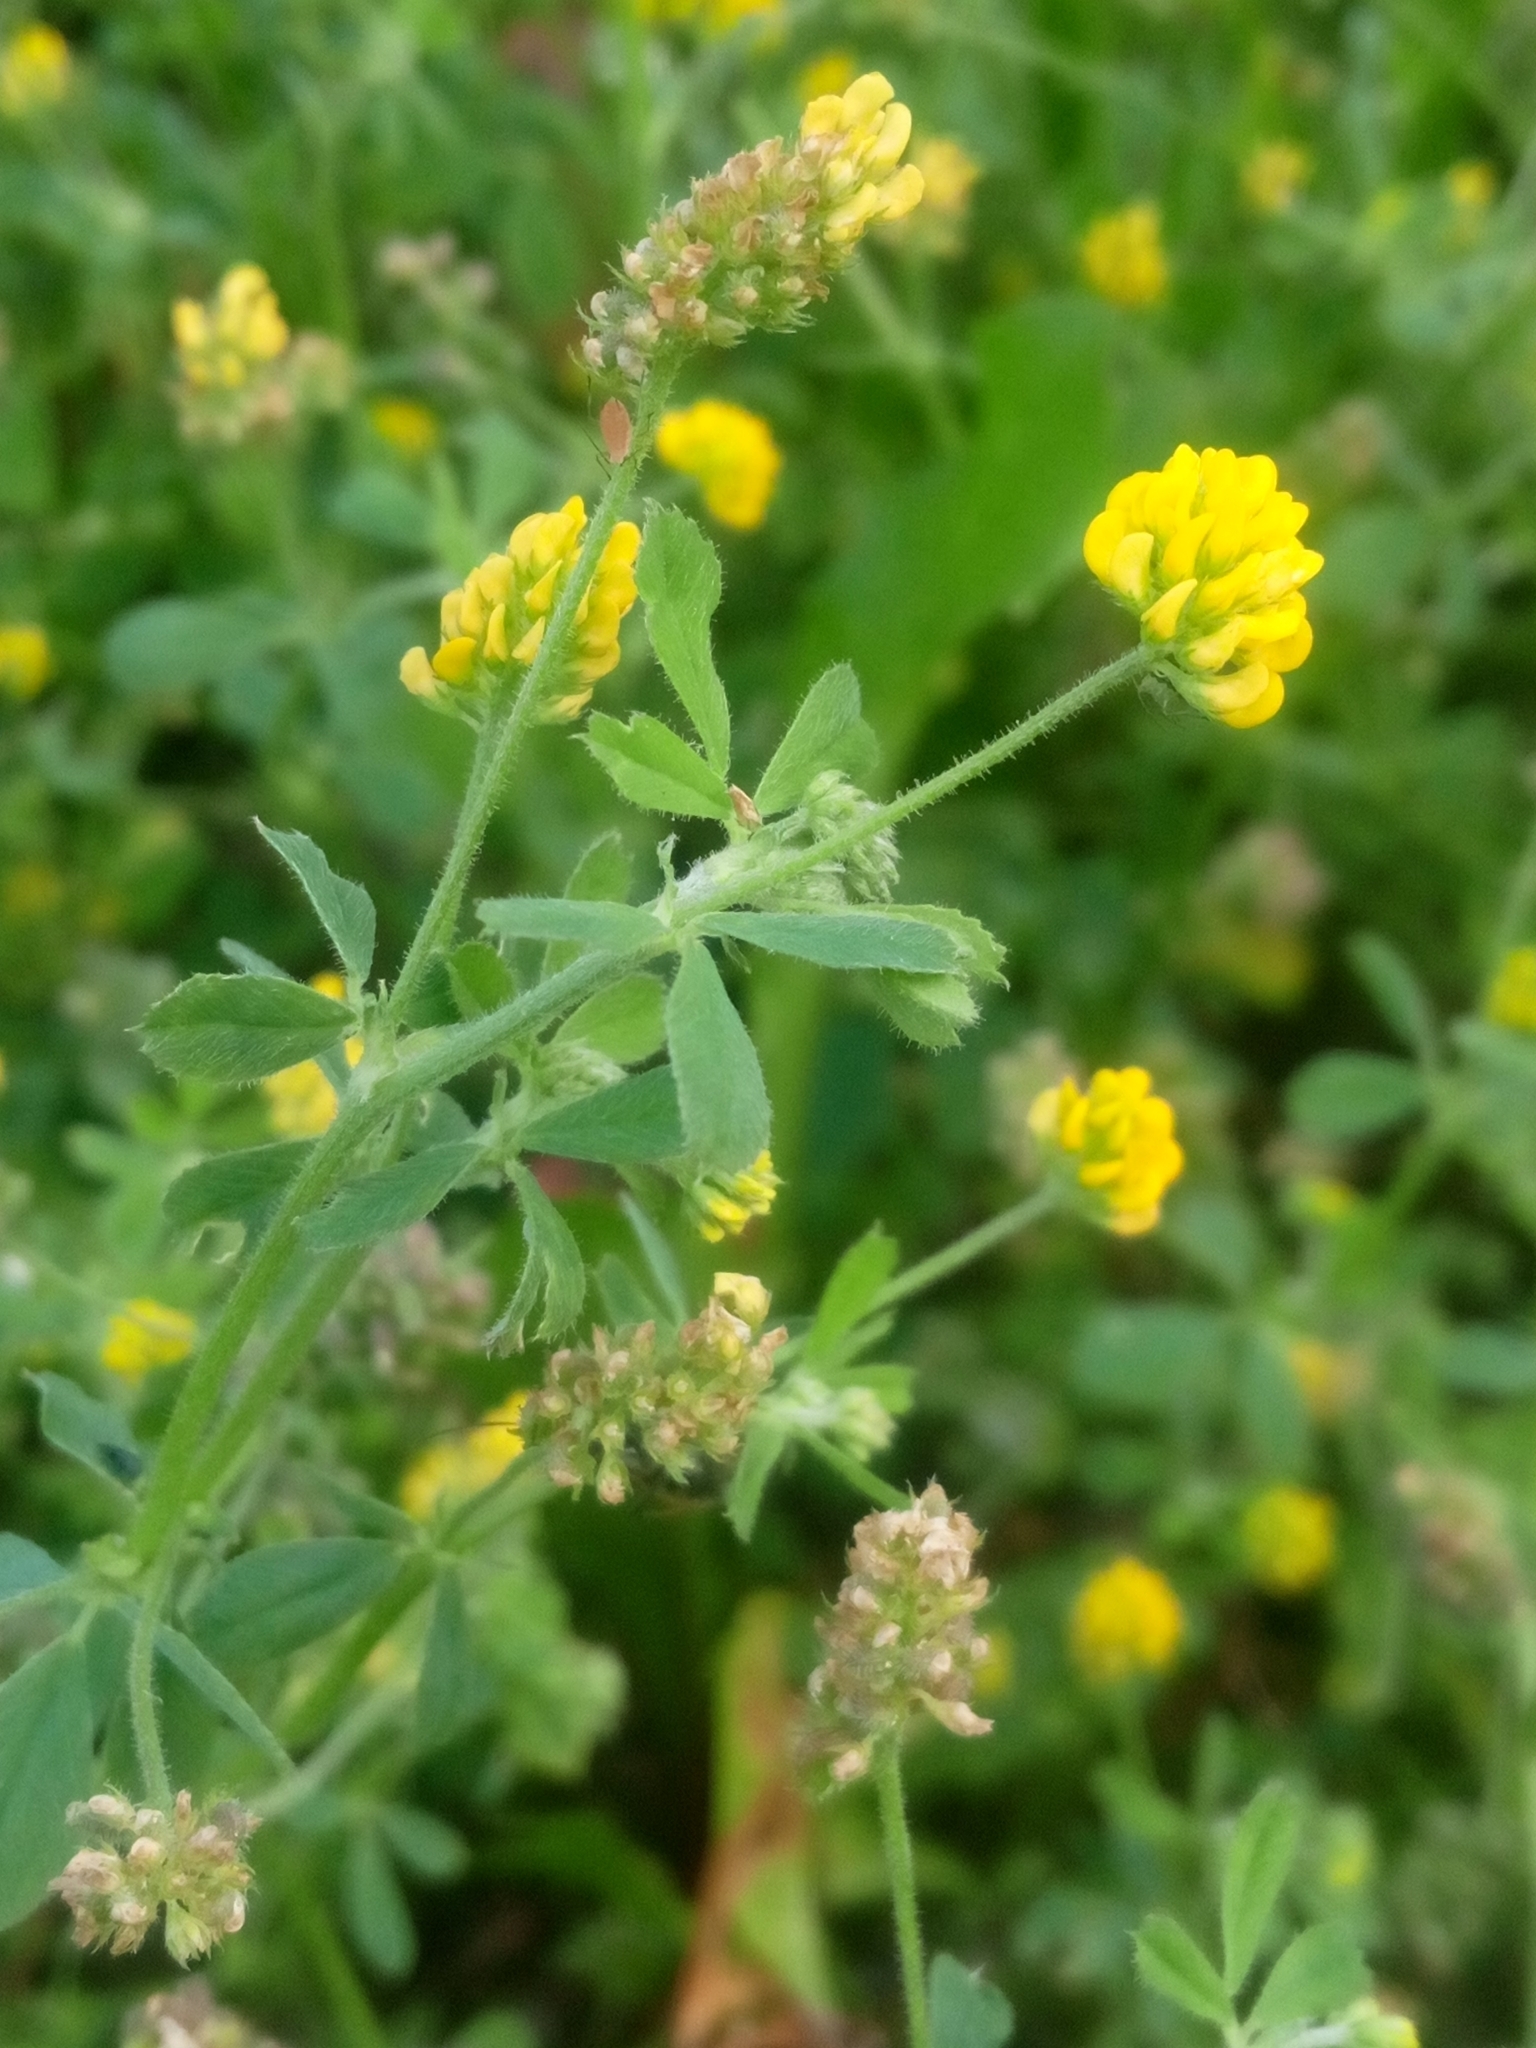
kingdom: Plantae
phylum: Tracheophyta
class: Magnoliopsida
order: Fabales
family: Fabaceae
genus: Medicago
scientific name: Medicago lupulina
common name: Black medick
